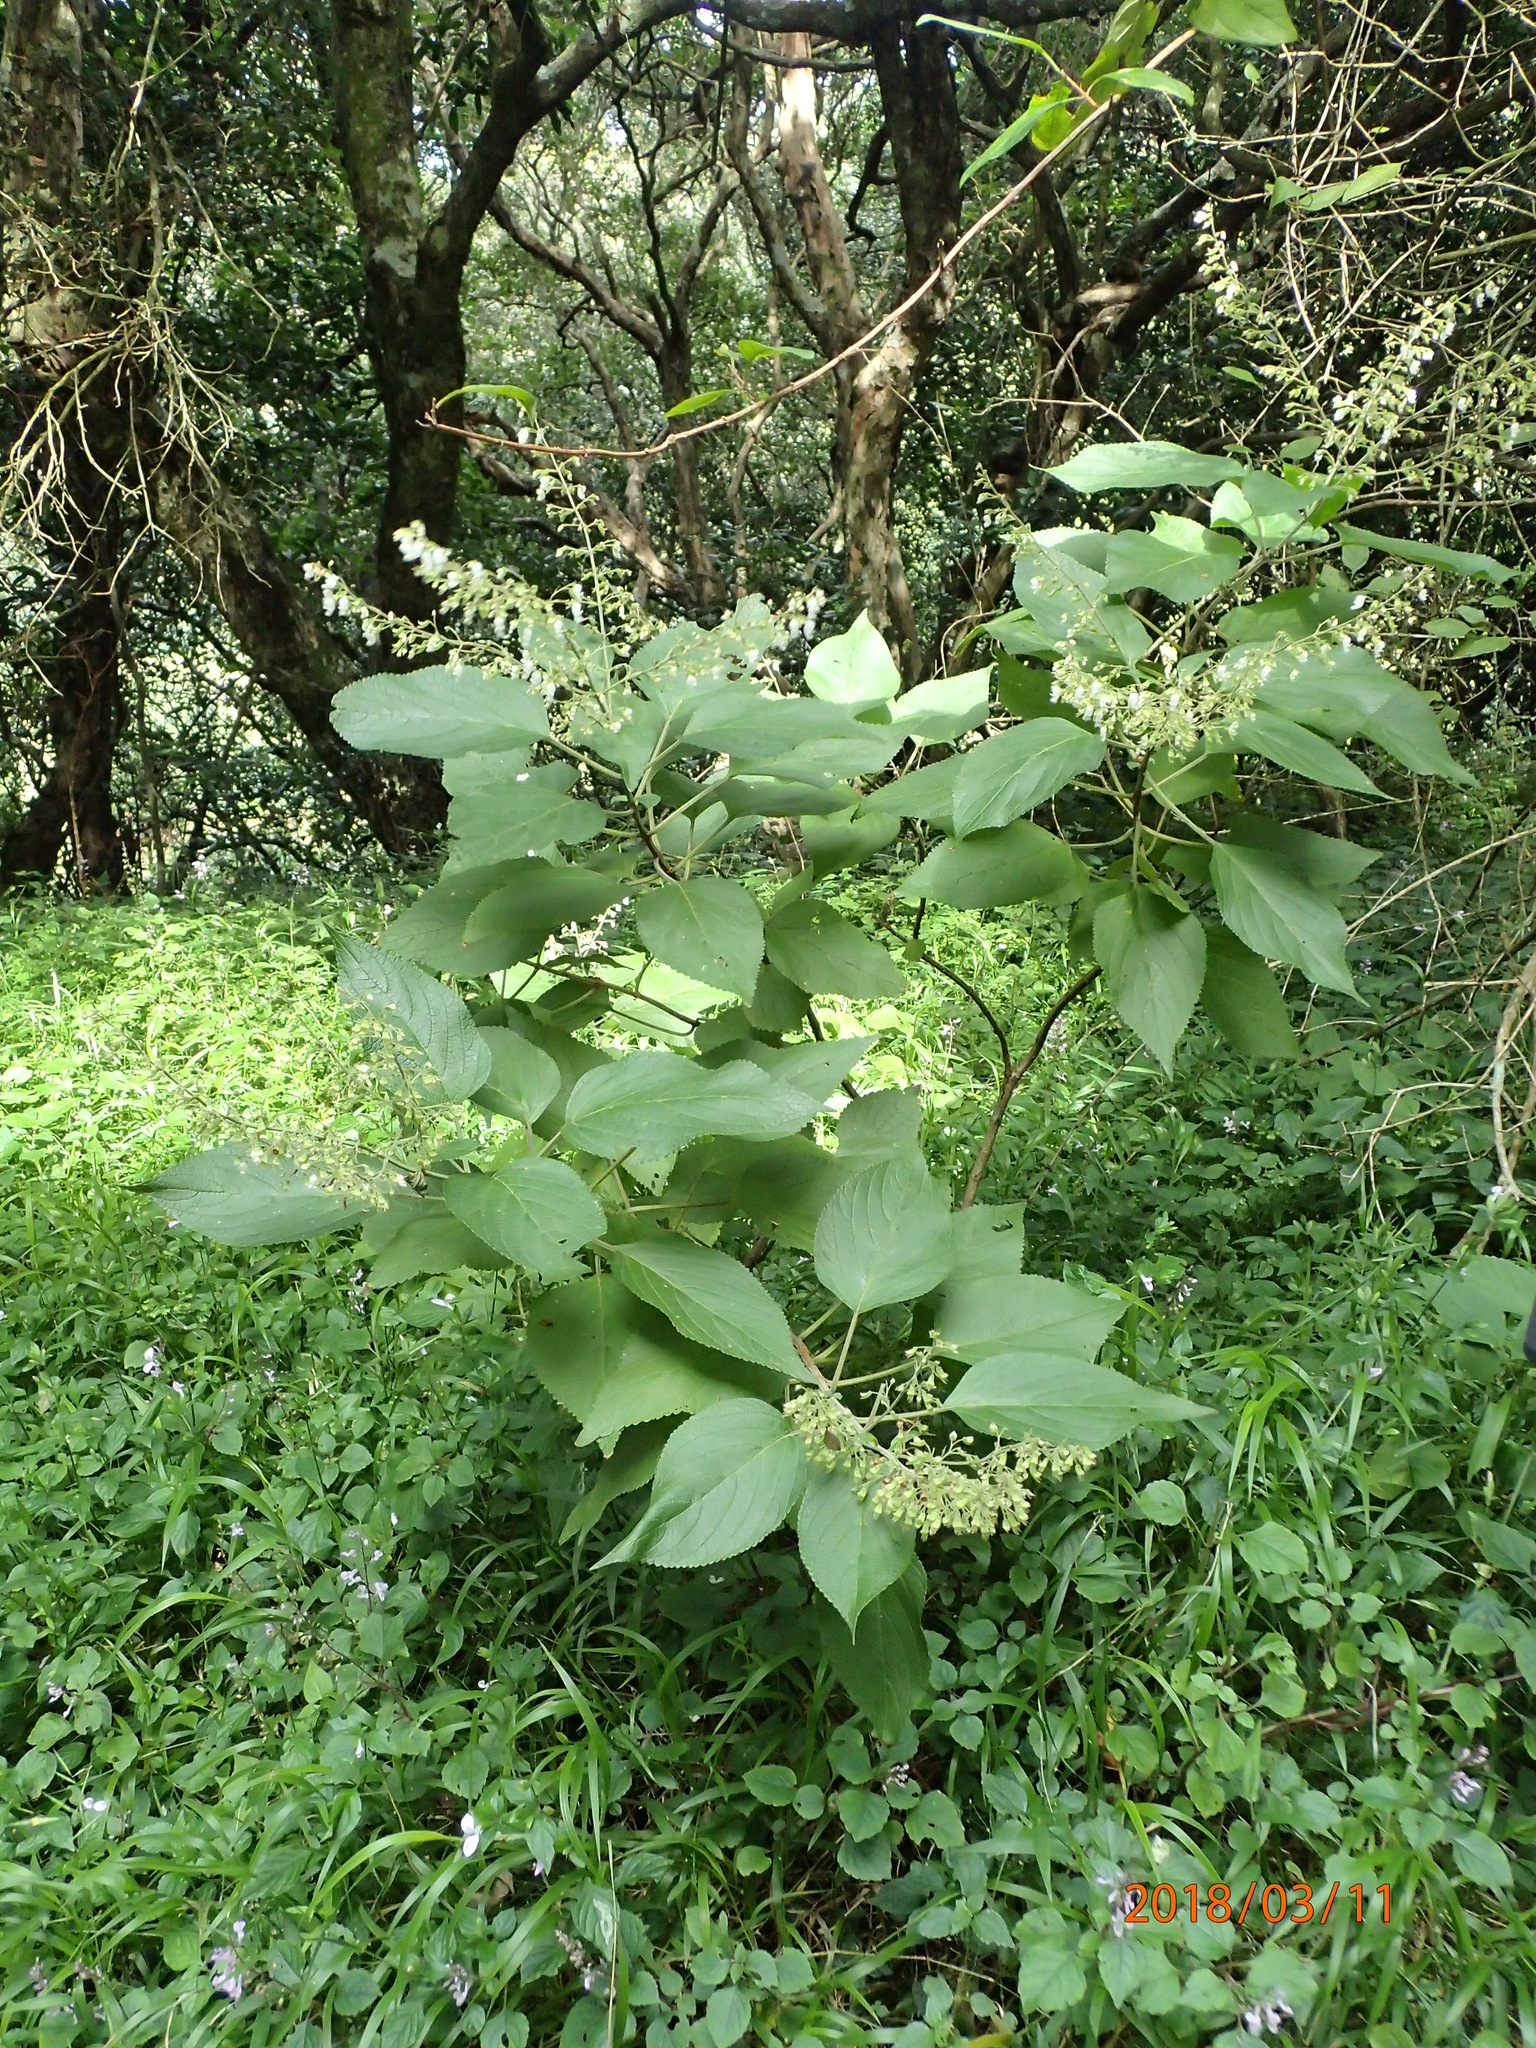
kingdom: Plantae
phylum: Tracheophyta
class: Magnoliopsida
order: Lamiales
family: Lamiaceae
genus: Coleus
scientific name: Coleus gibbosus
